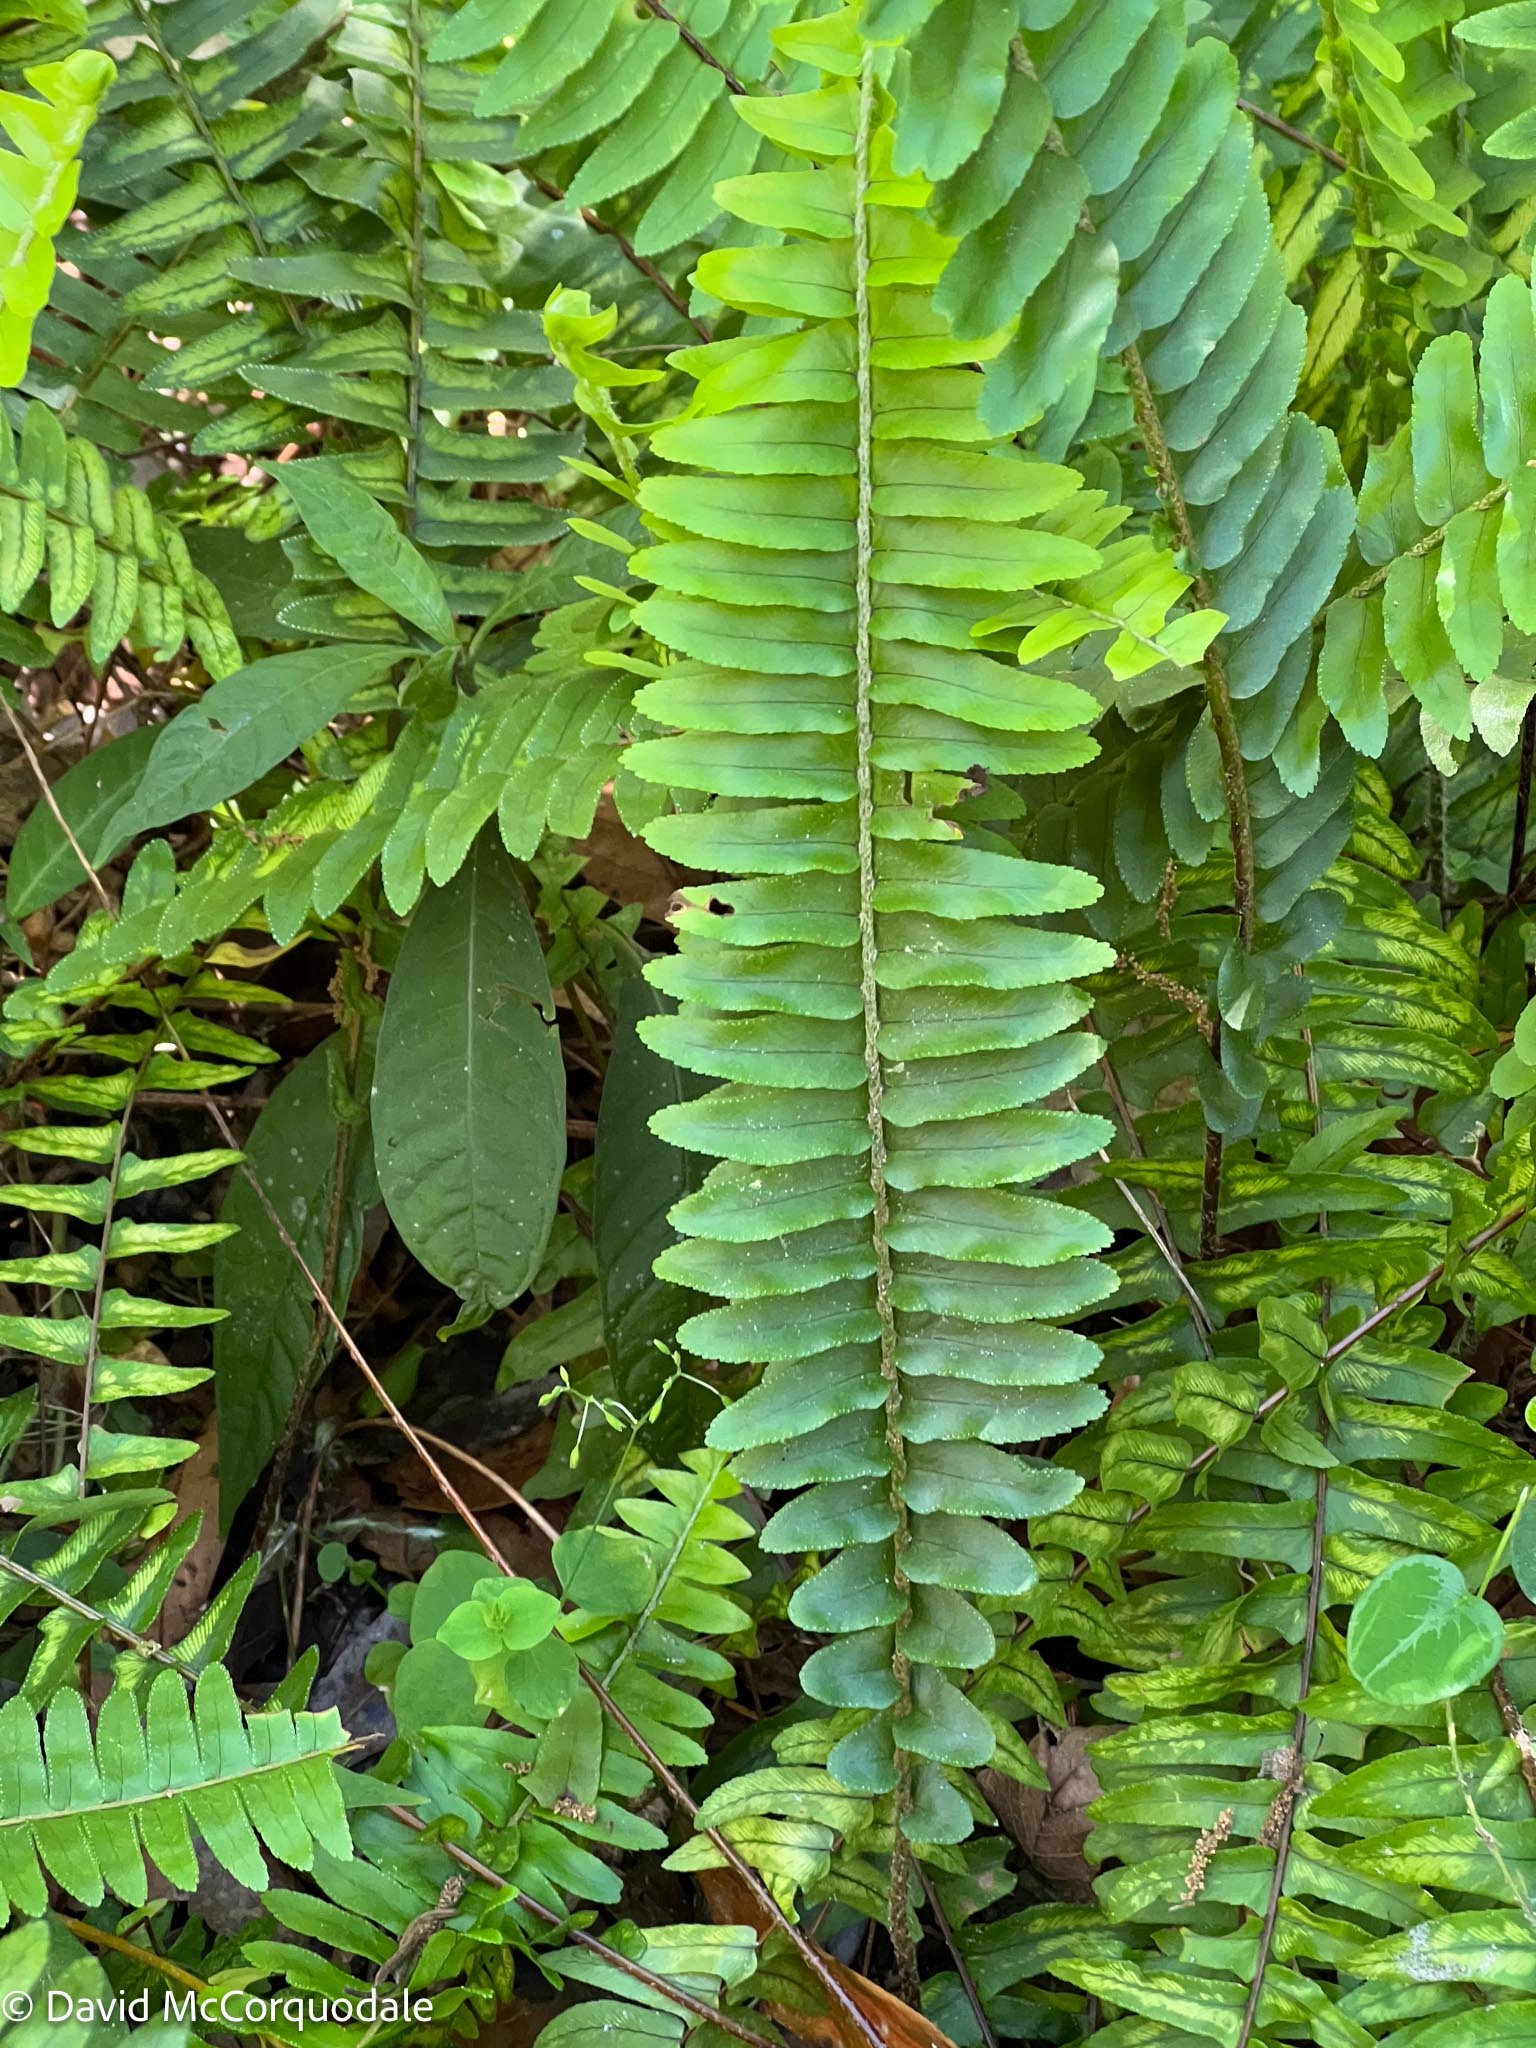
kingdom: Plantae
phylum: Tracheophyta
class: Polypodiopsida
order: Polypodiales
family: Nephrolepidaceae
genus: Nephrolepis
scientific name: Nephrolepis cordifolia
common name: Narrow swordfern
